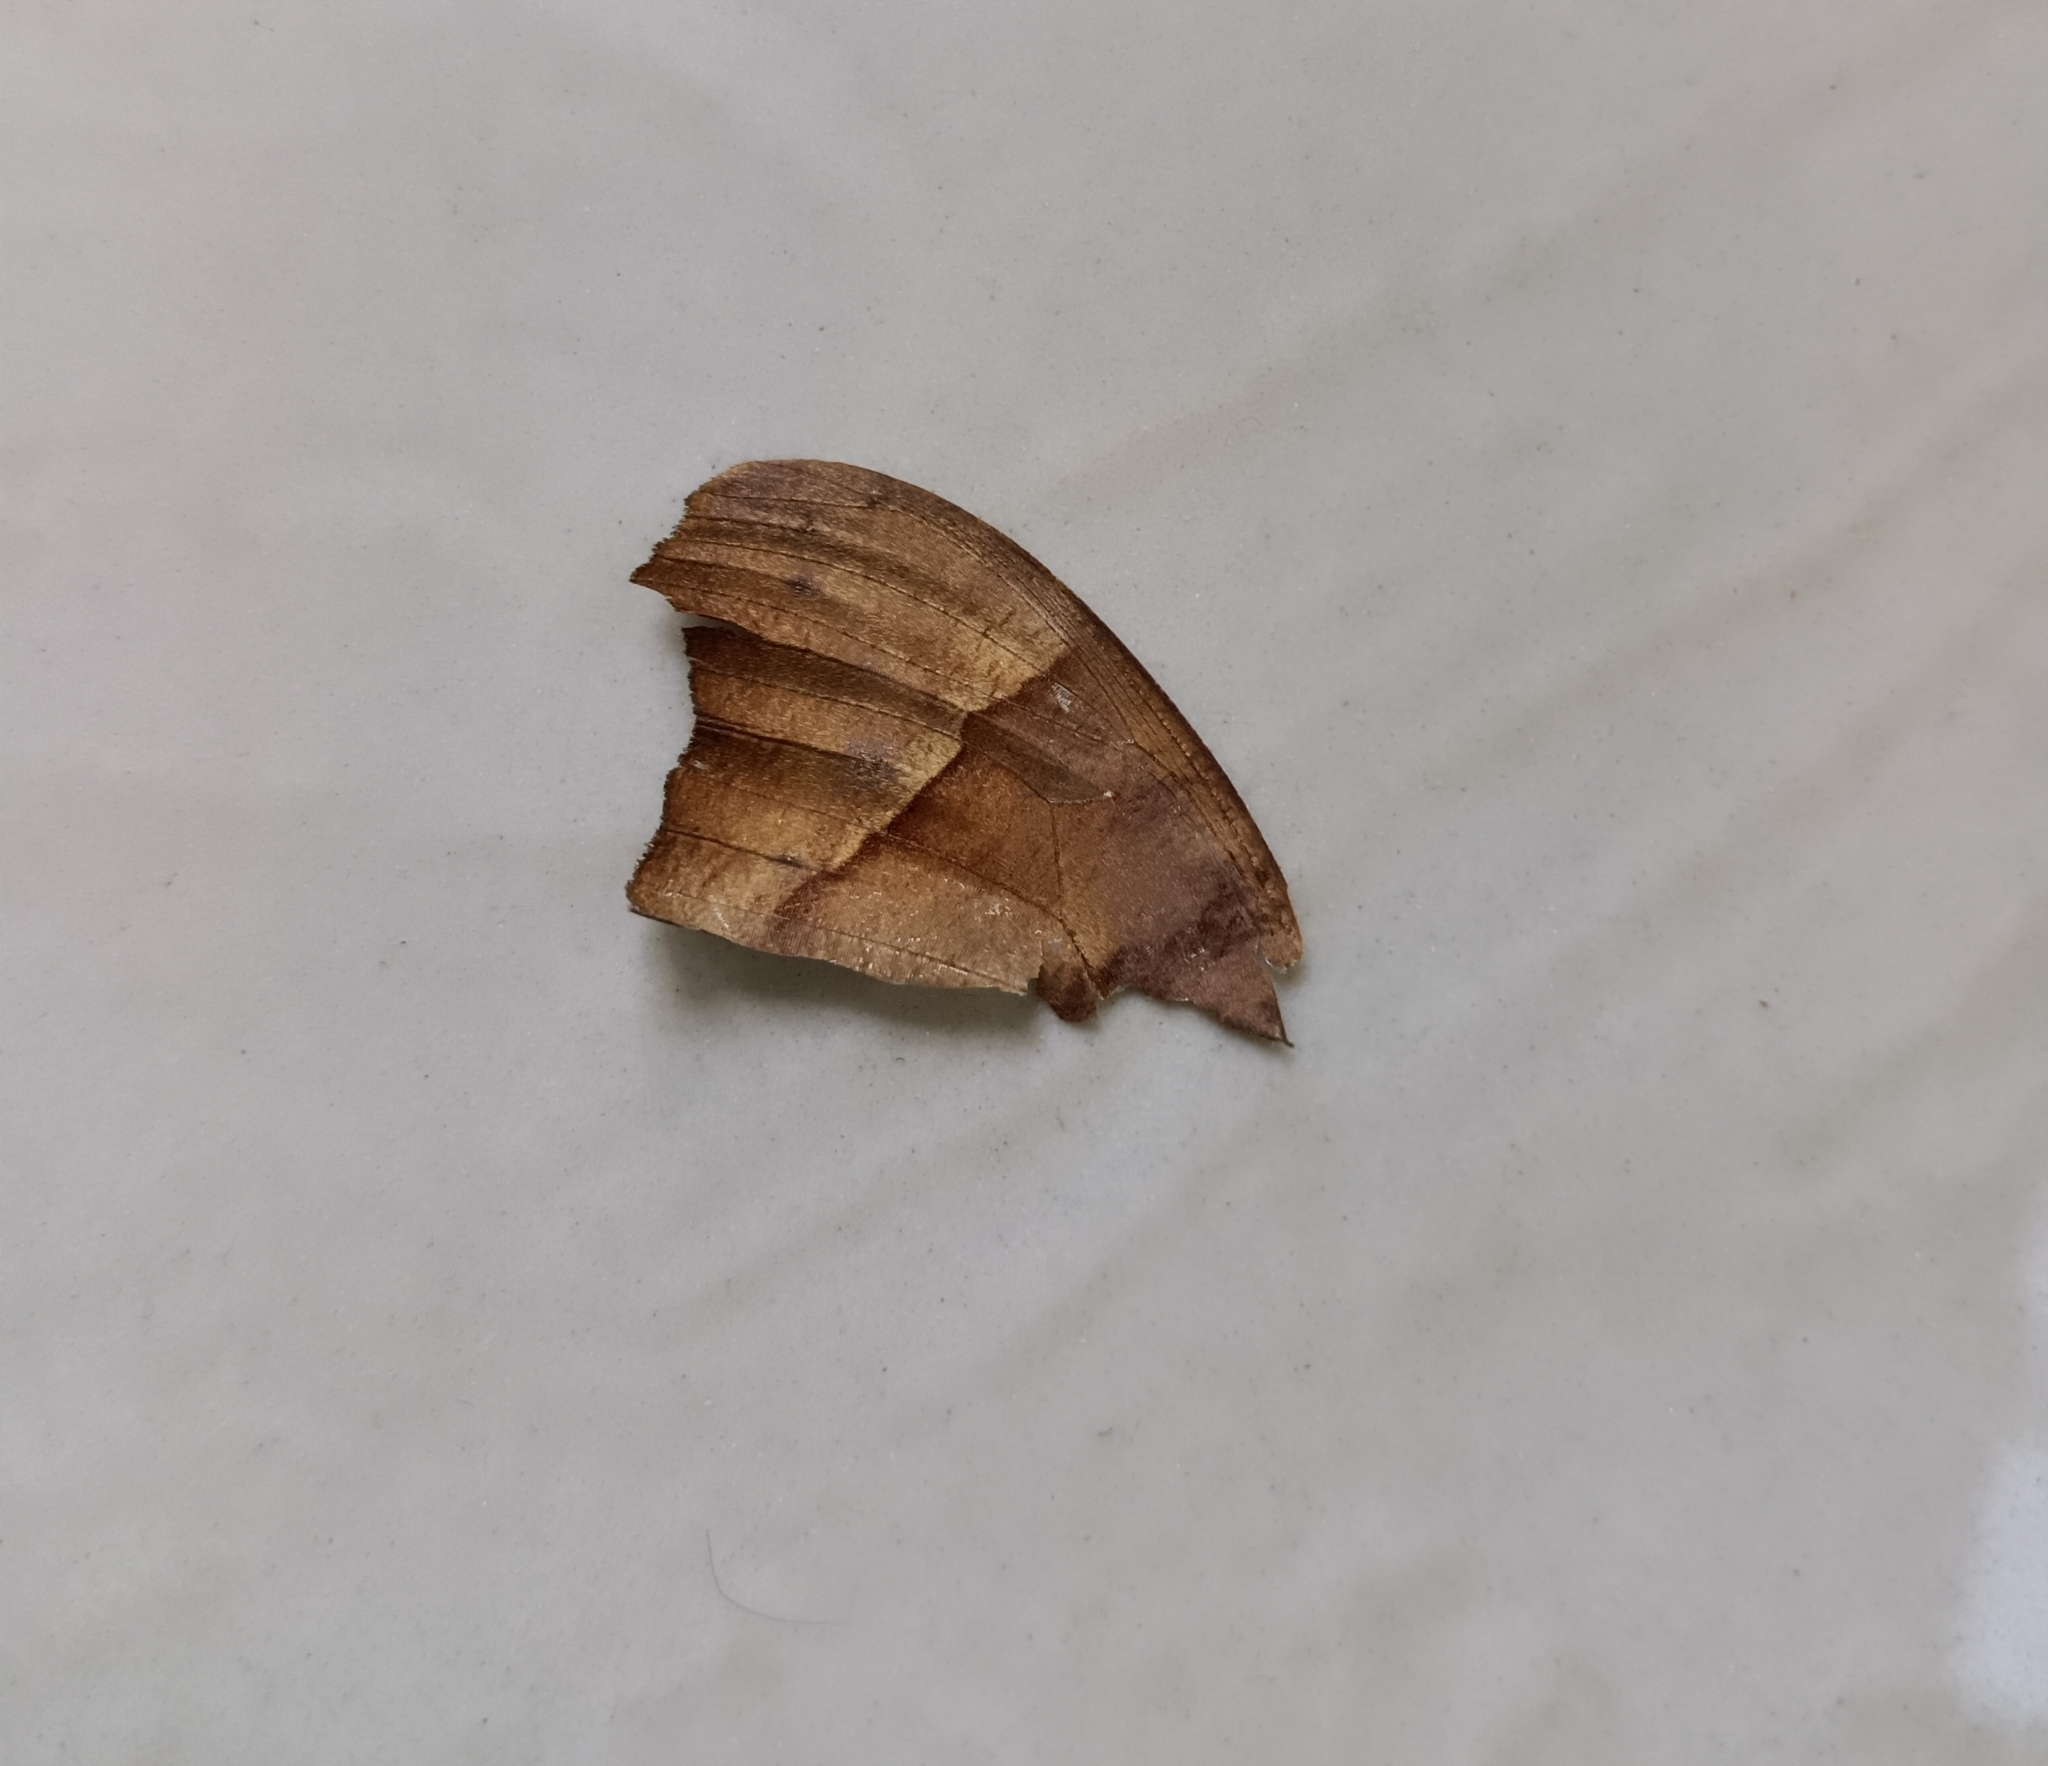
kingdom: Animalia
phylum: Arthropoda
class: Insecta
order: Lepidoptera
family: Nymphalidae
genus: Melanitis
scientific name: Melanitis leda
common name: Twilight brown
